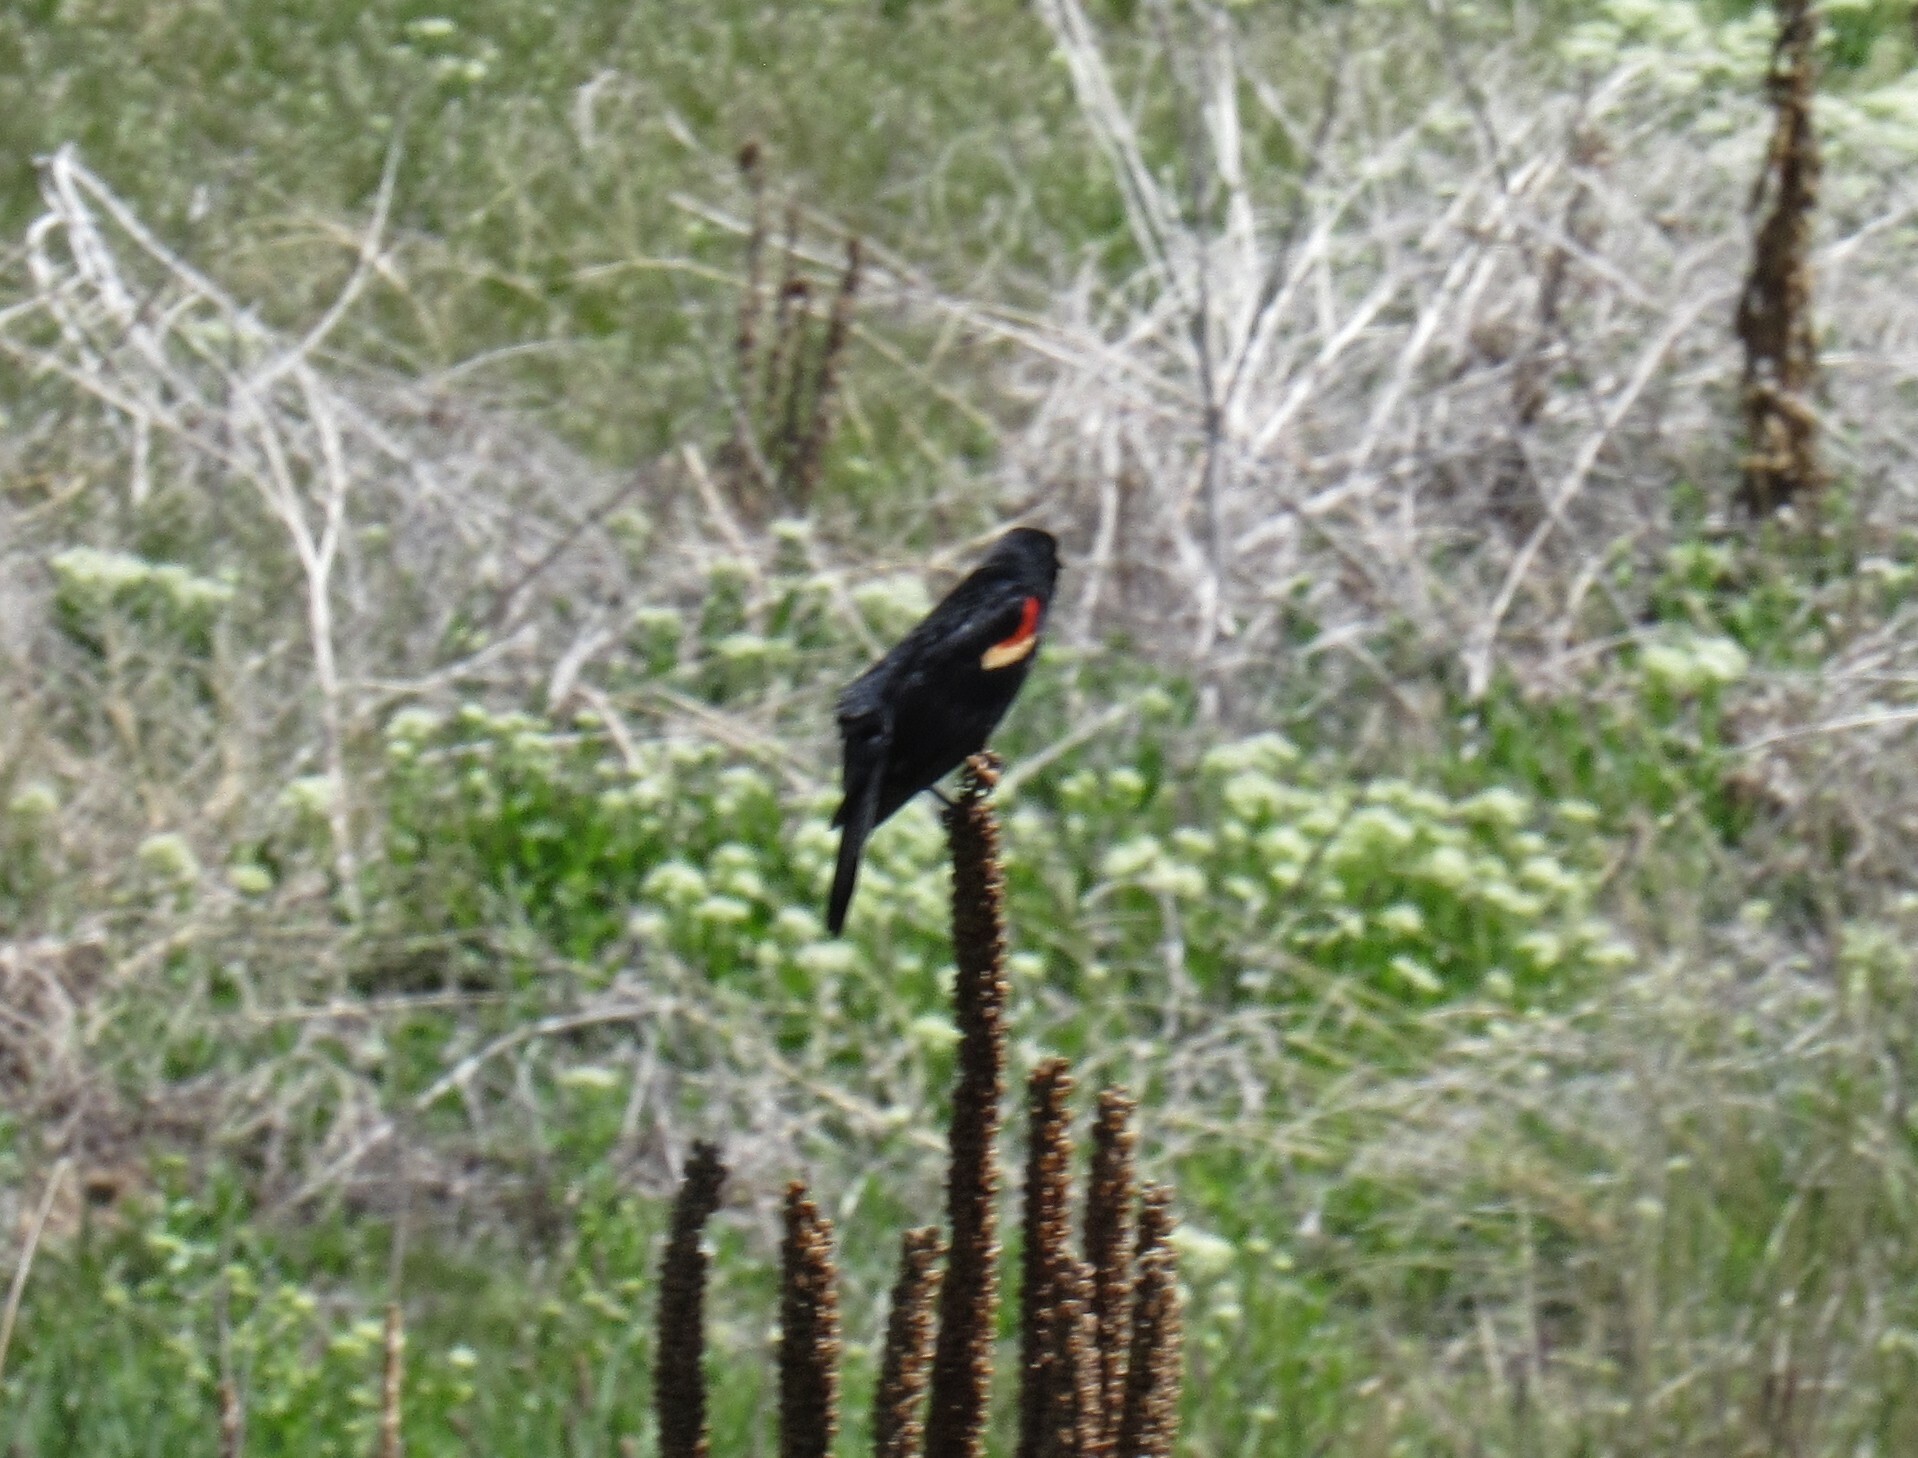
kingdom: Animalia
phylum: Chordata
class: Aves
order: Passeriformes
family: Icteridae
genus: Agelaius
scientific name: Agelaius phoeniceus
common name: Red-winged blackbird
